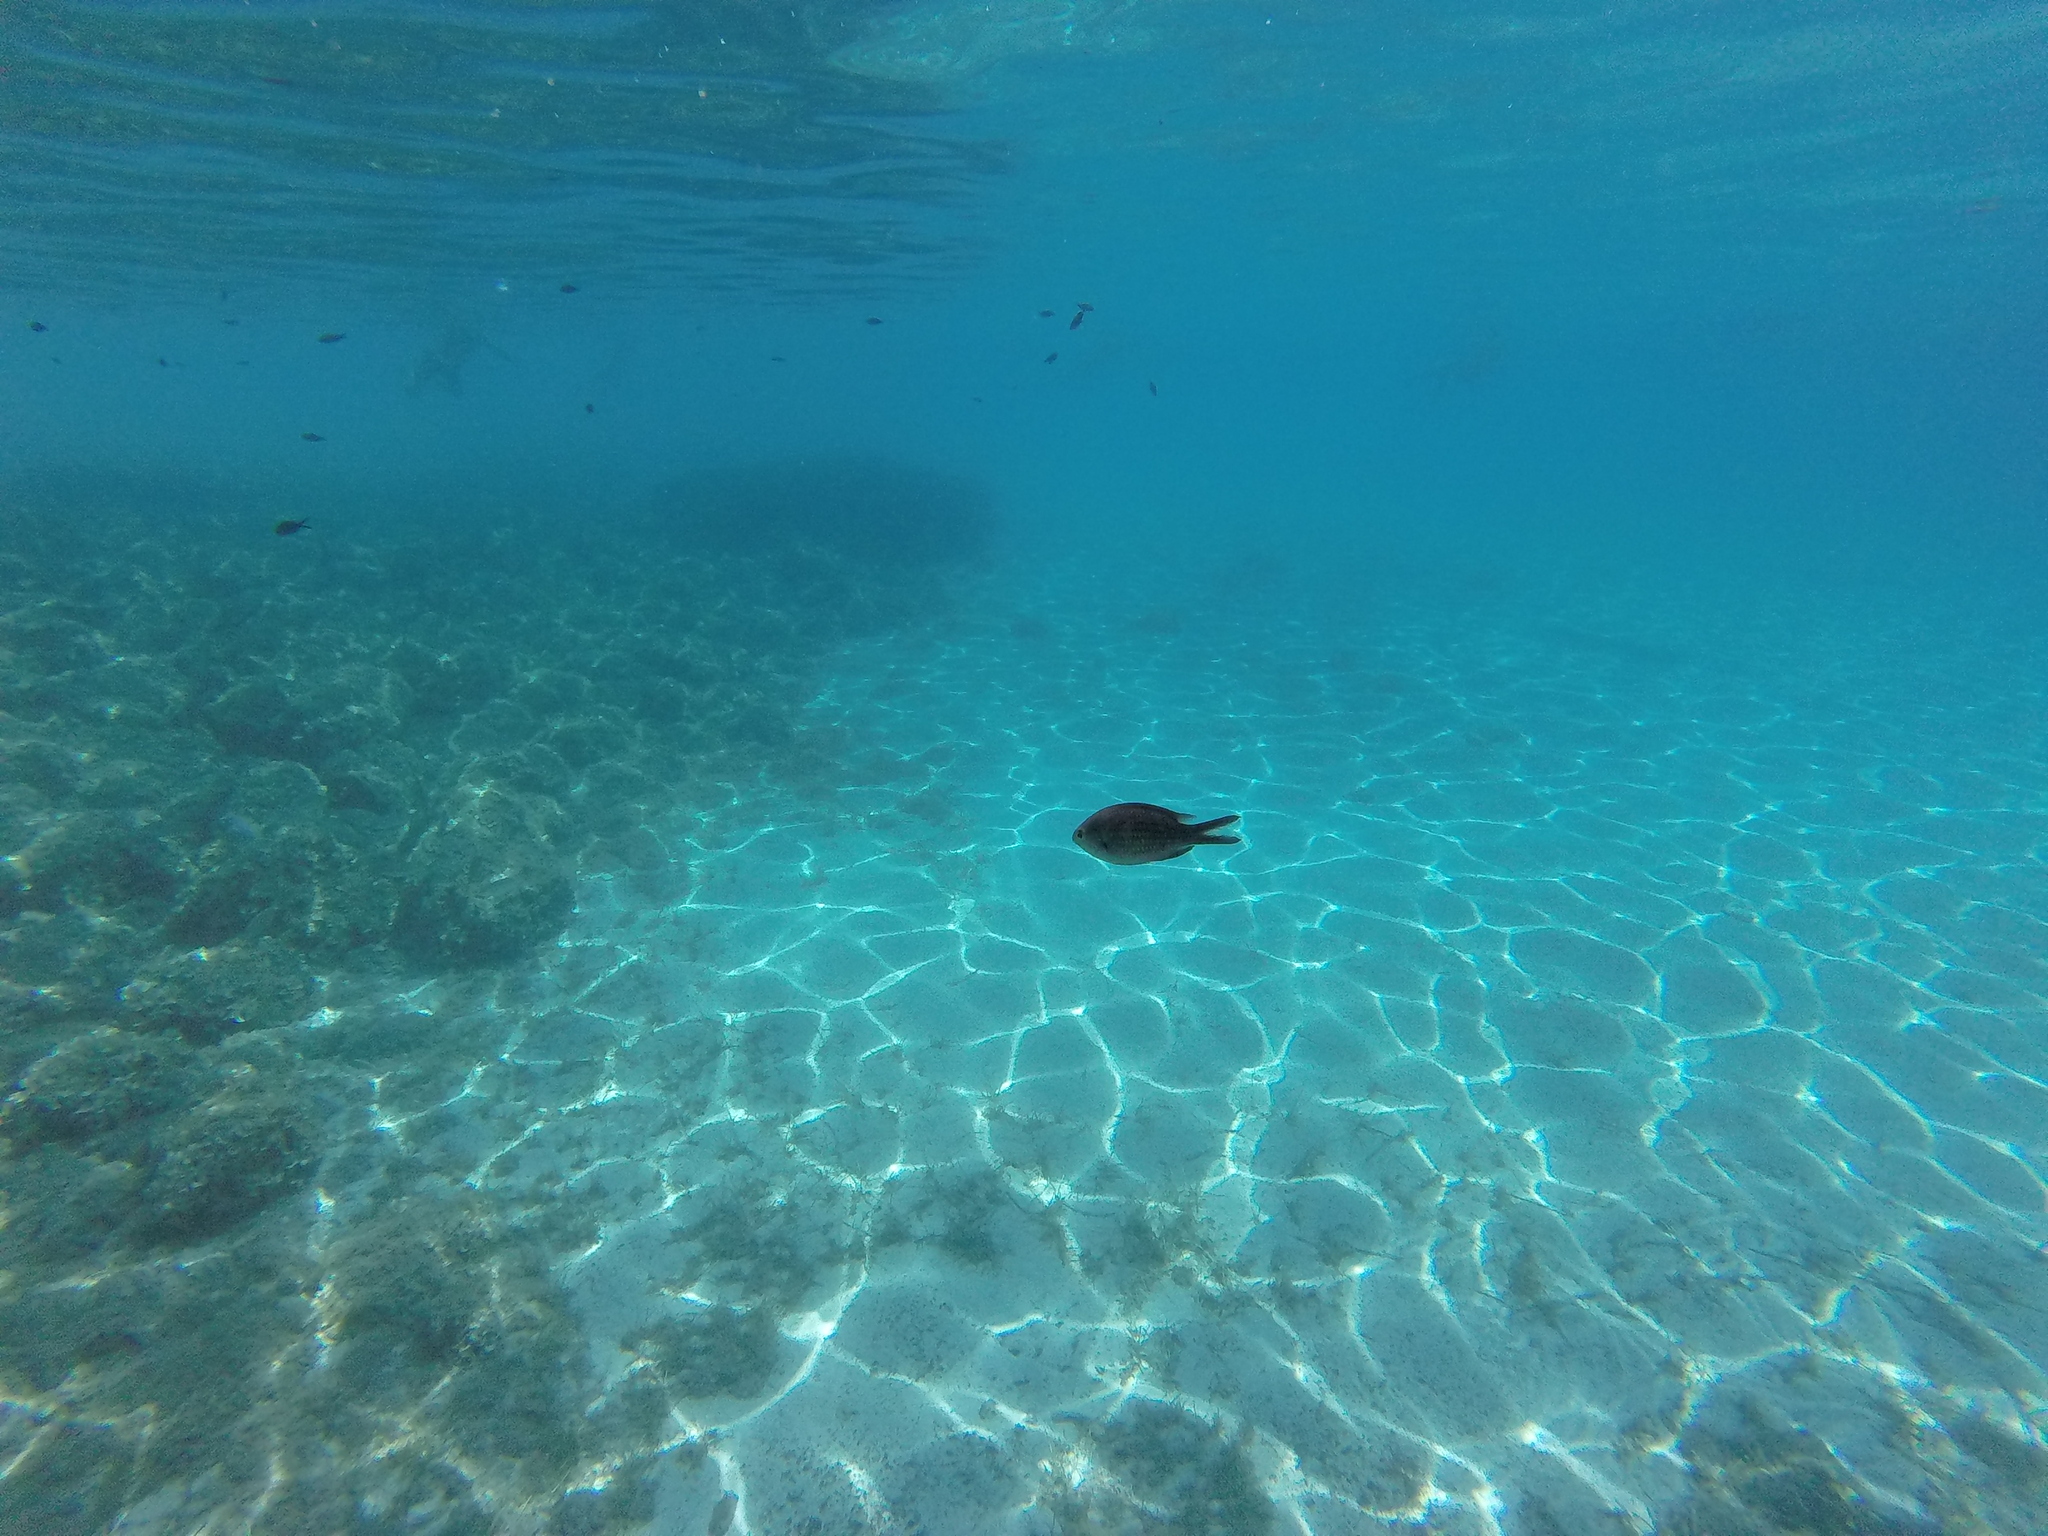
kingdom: Animalia
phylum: Chordata
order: Perciformes
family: Pomacentridae
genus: Chromis
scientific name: Chromis chromis
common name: Damselfish
